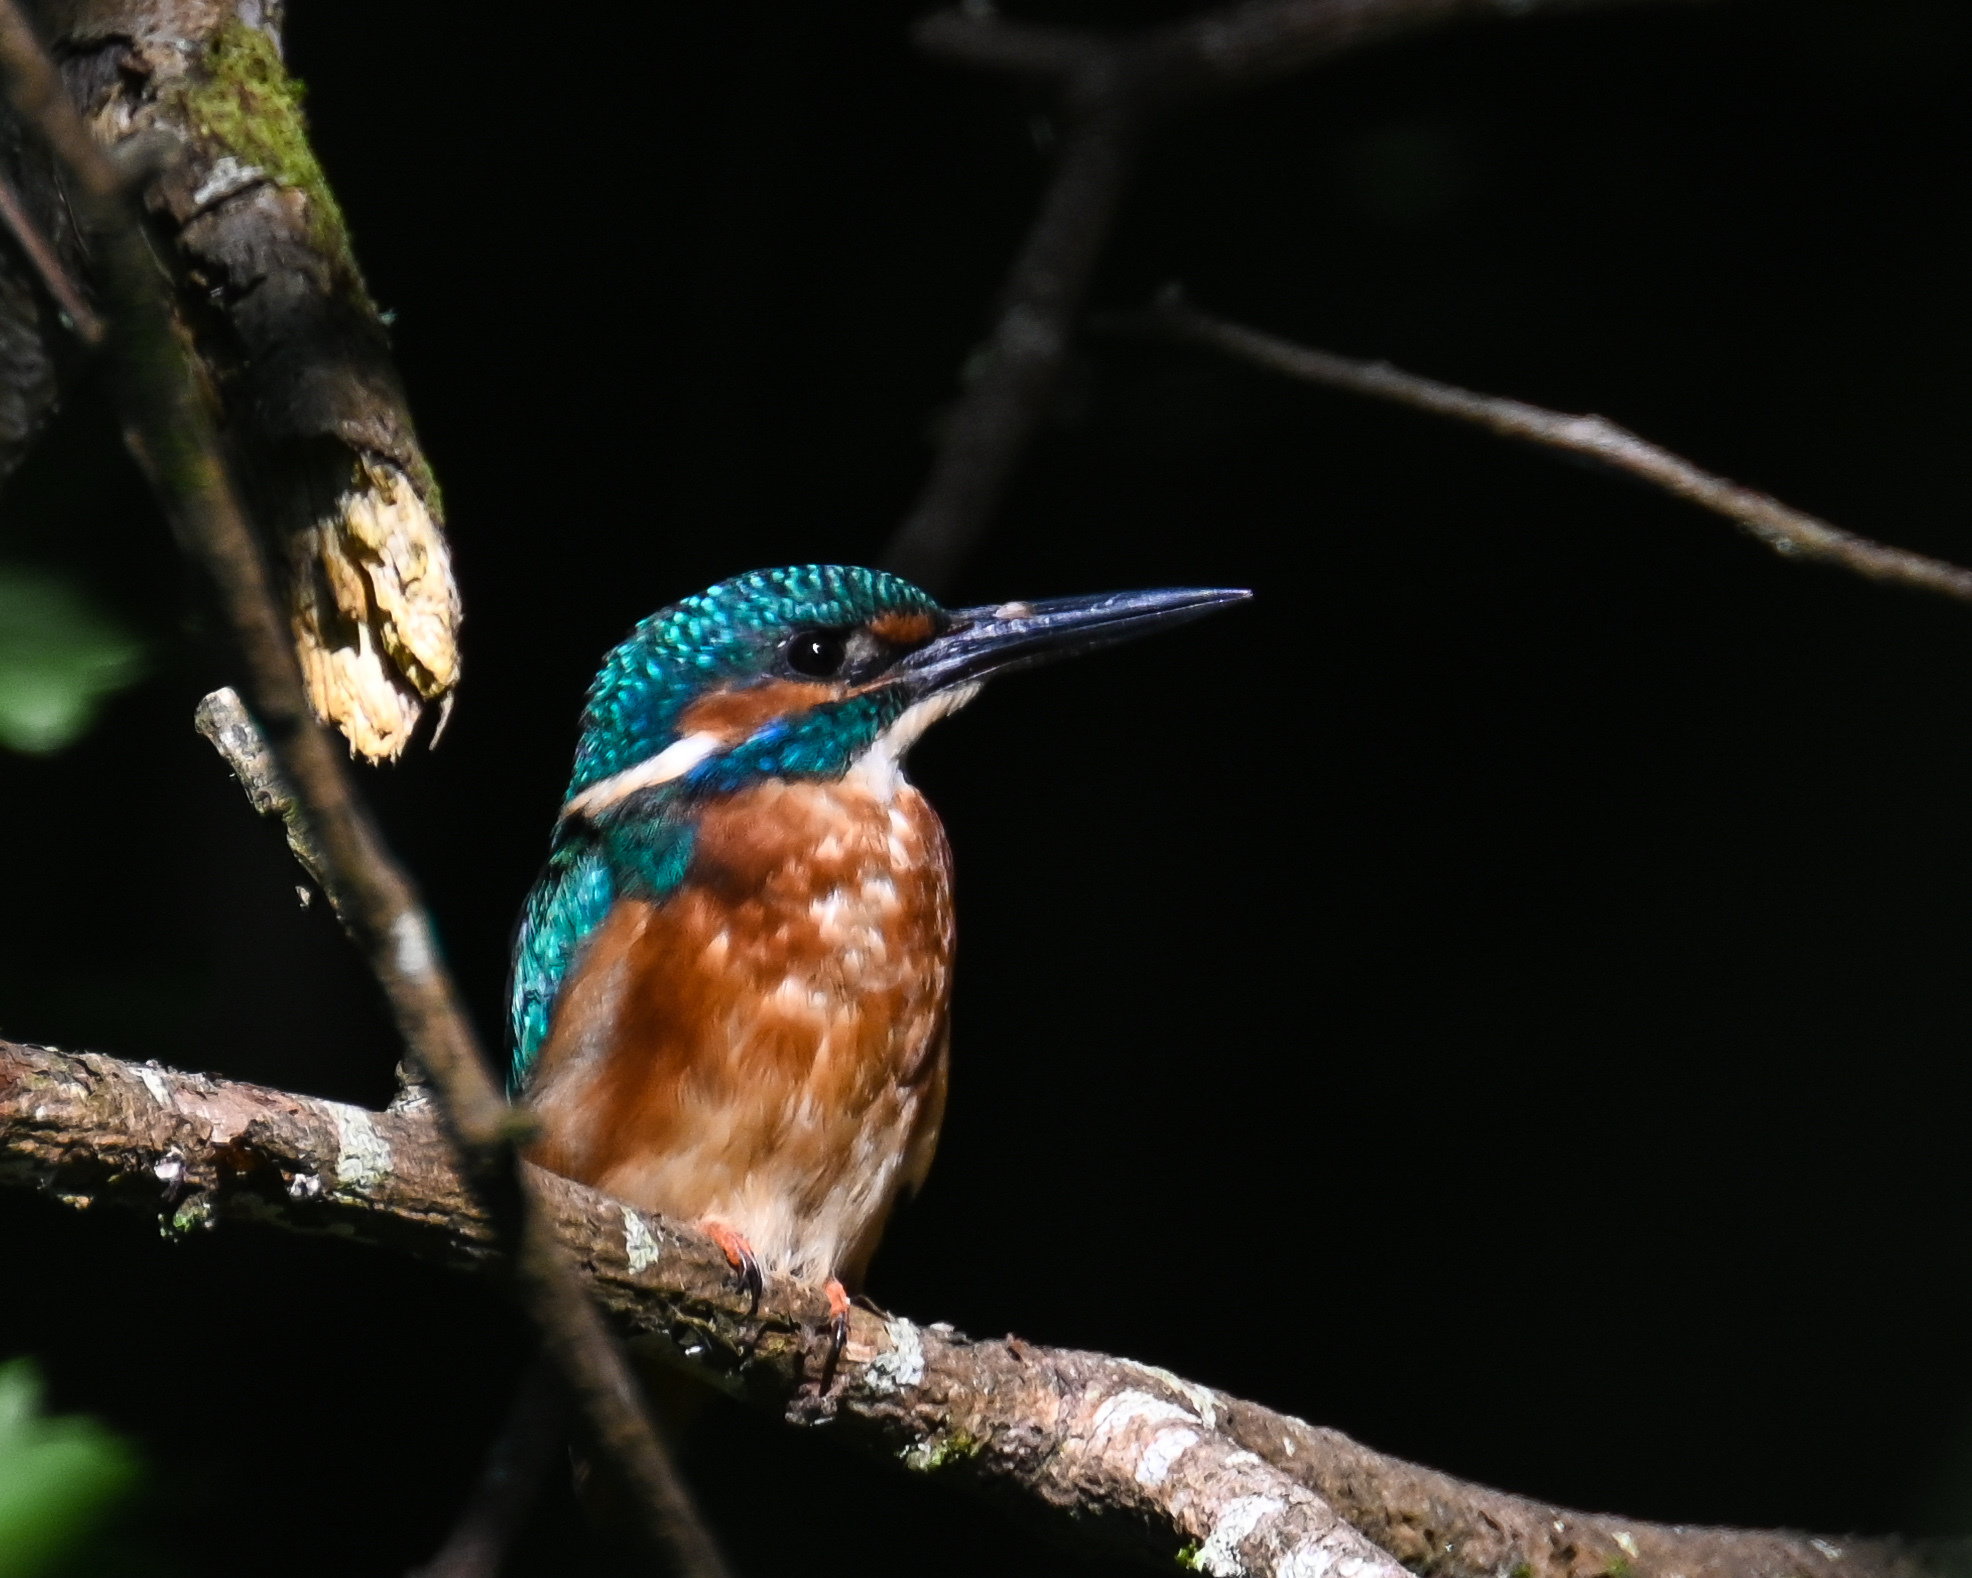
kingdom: Animalia
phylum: Chordata
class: Aves
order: Coraciiformes
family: Alcedinidae
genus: Alcedo
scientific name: Alcedo atthis
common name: Common kingfisher
